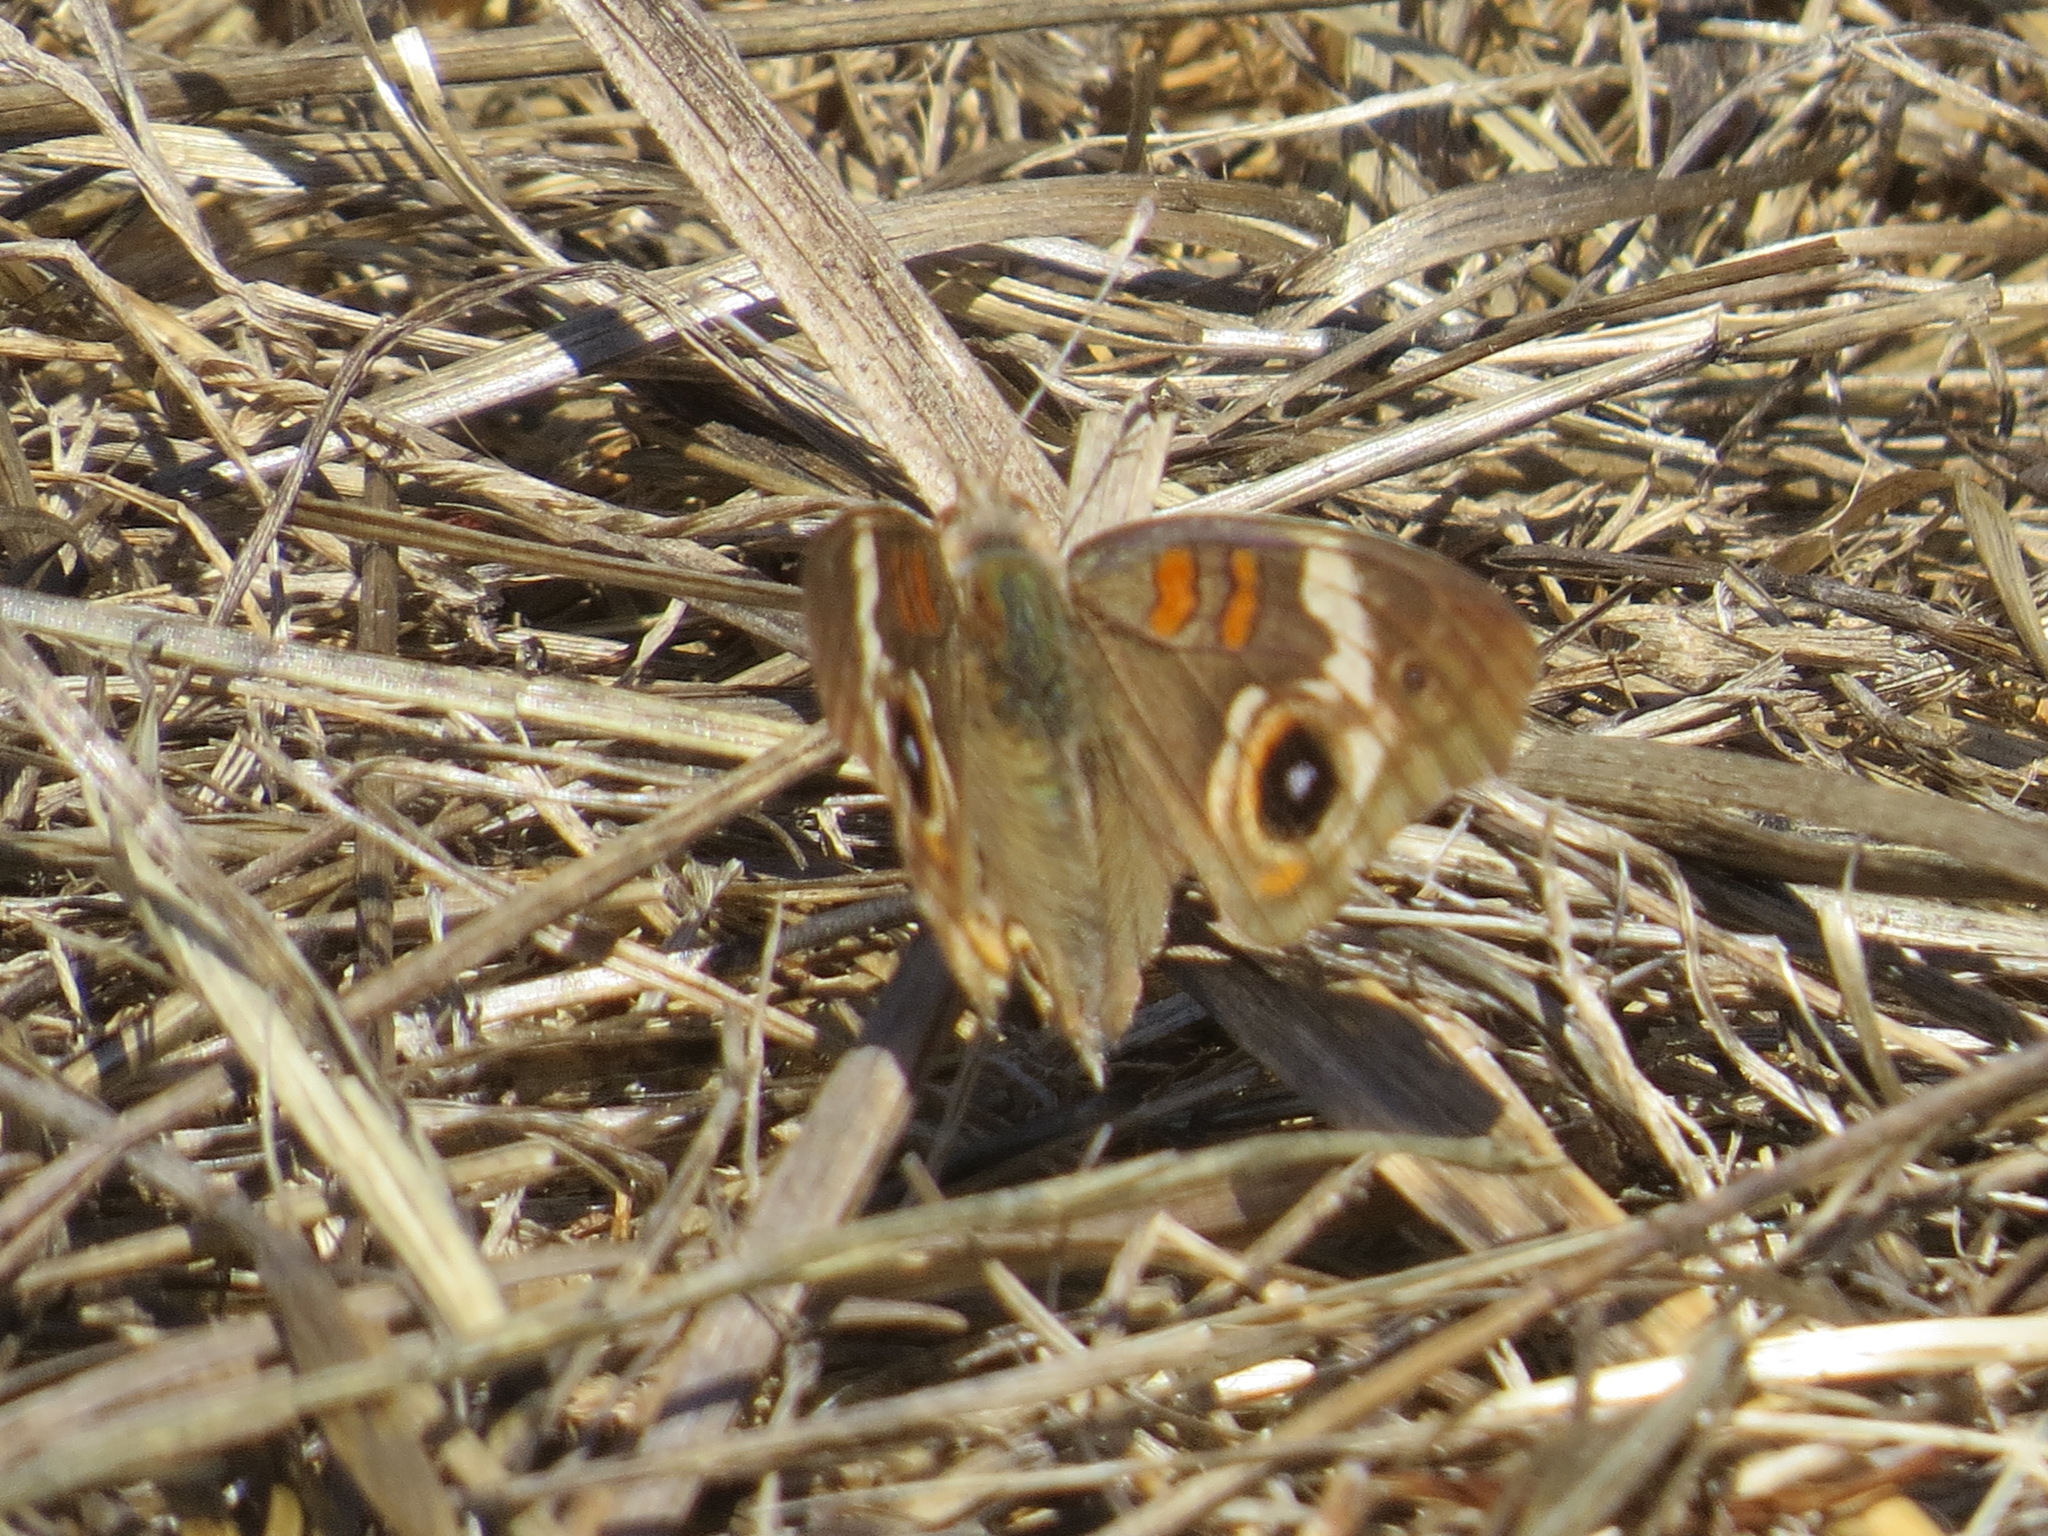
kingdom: Animalia
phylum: Arthropoda
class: Insecta
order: Lepidoptera
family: Nymphalidae
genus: Junonia
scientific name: Junonia grisea
